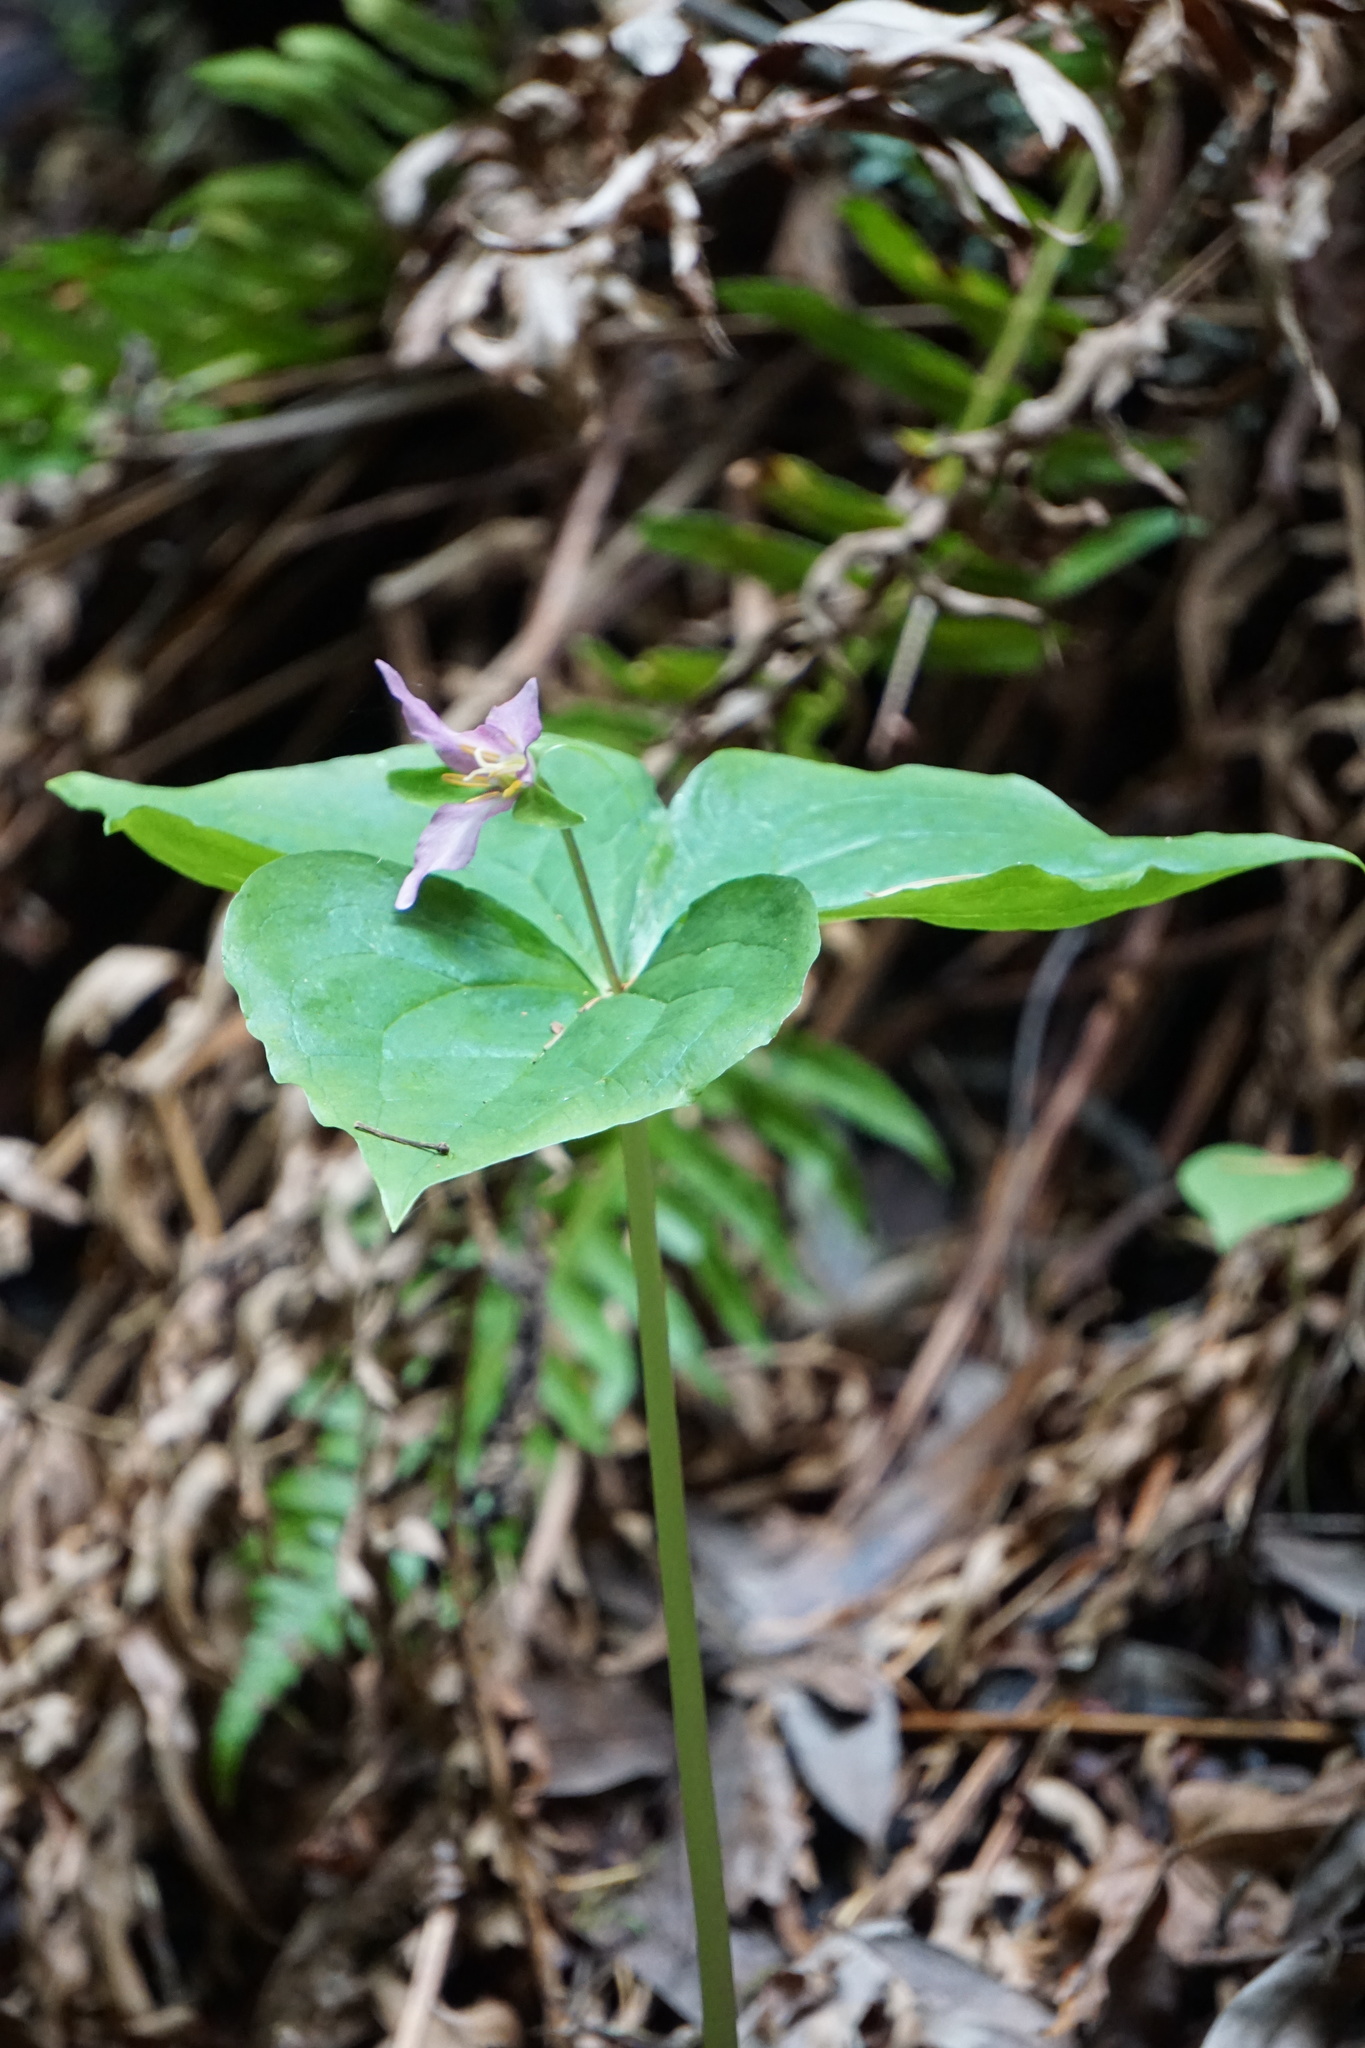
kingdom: Plantae
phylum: Tracheophyta
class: Liliopsida
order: Liliales
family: Melanthiaceae
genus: Trillium
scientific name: Trillium ovatum
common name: Pacific trillium
